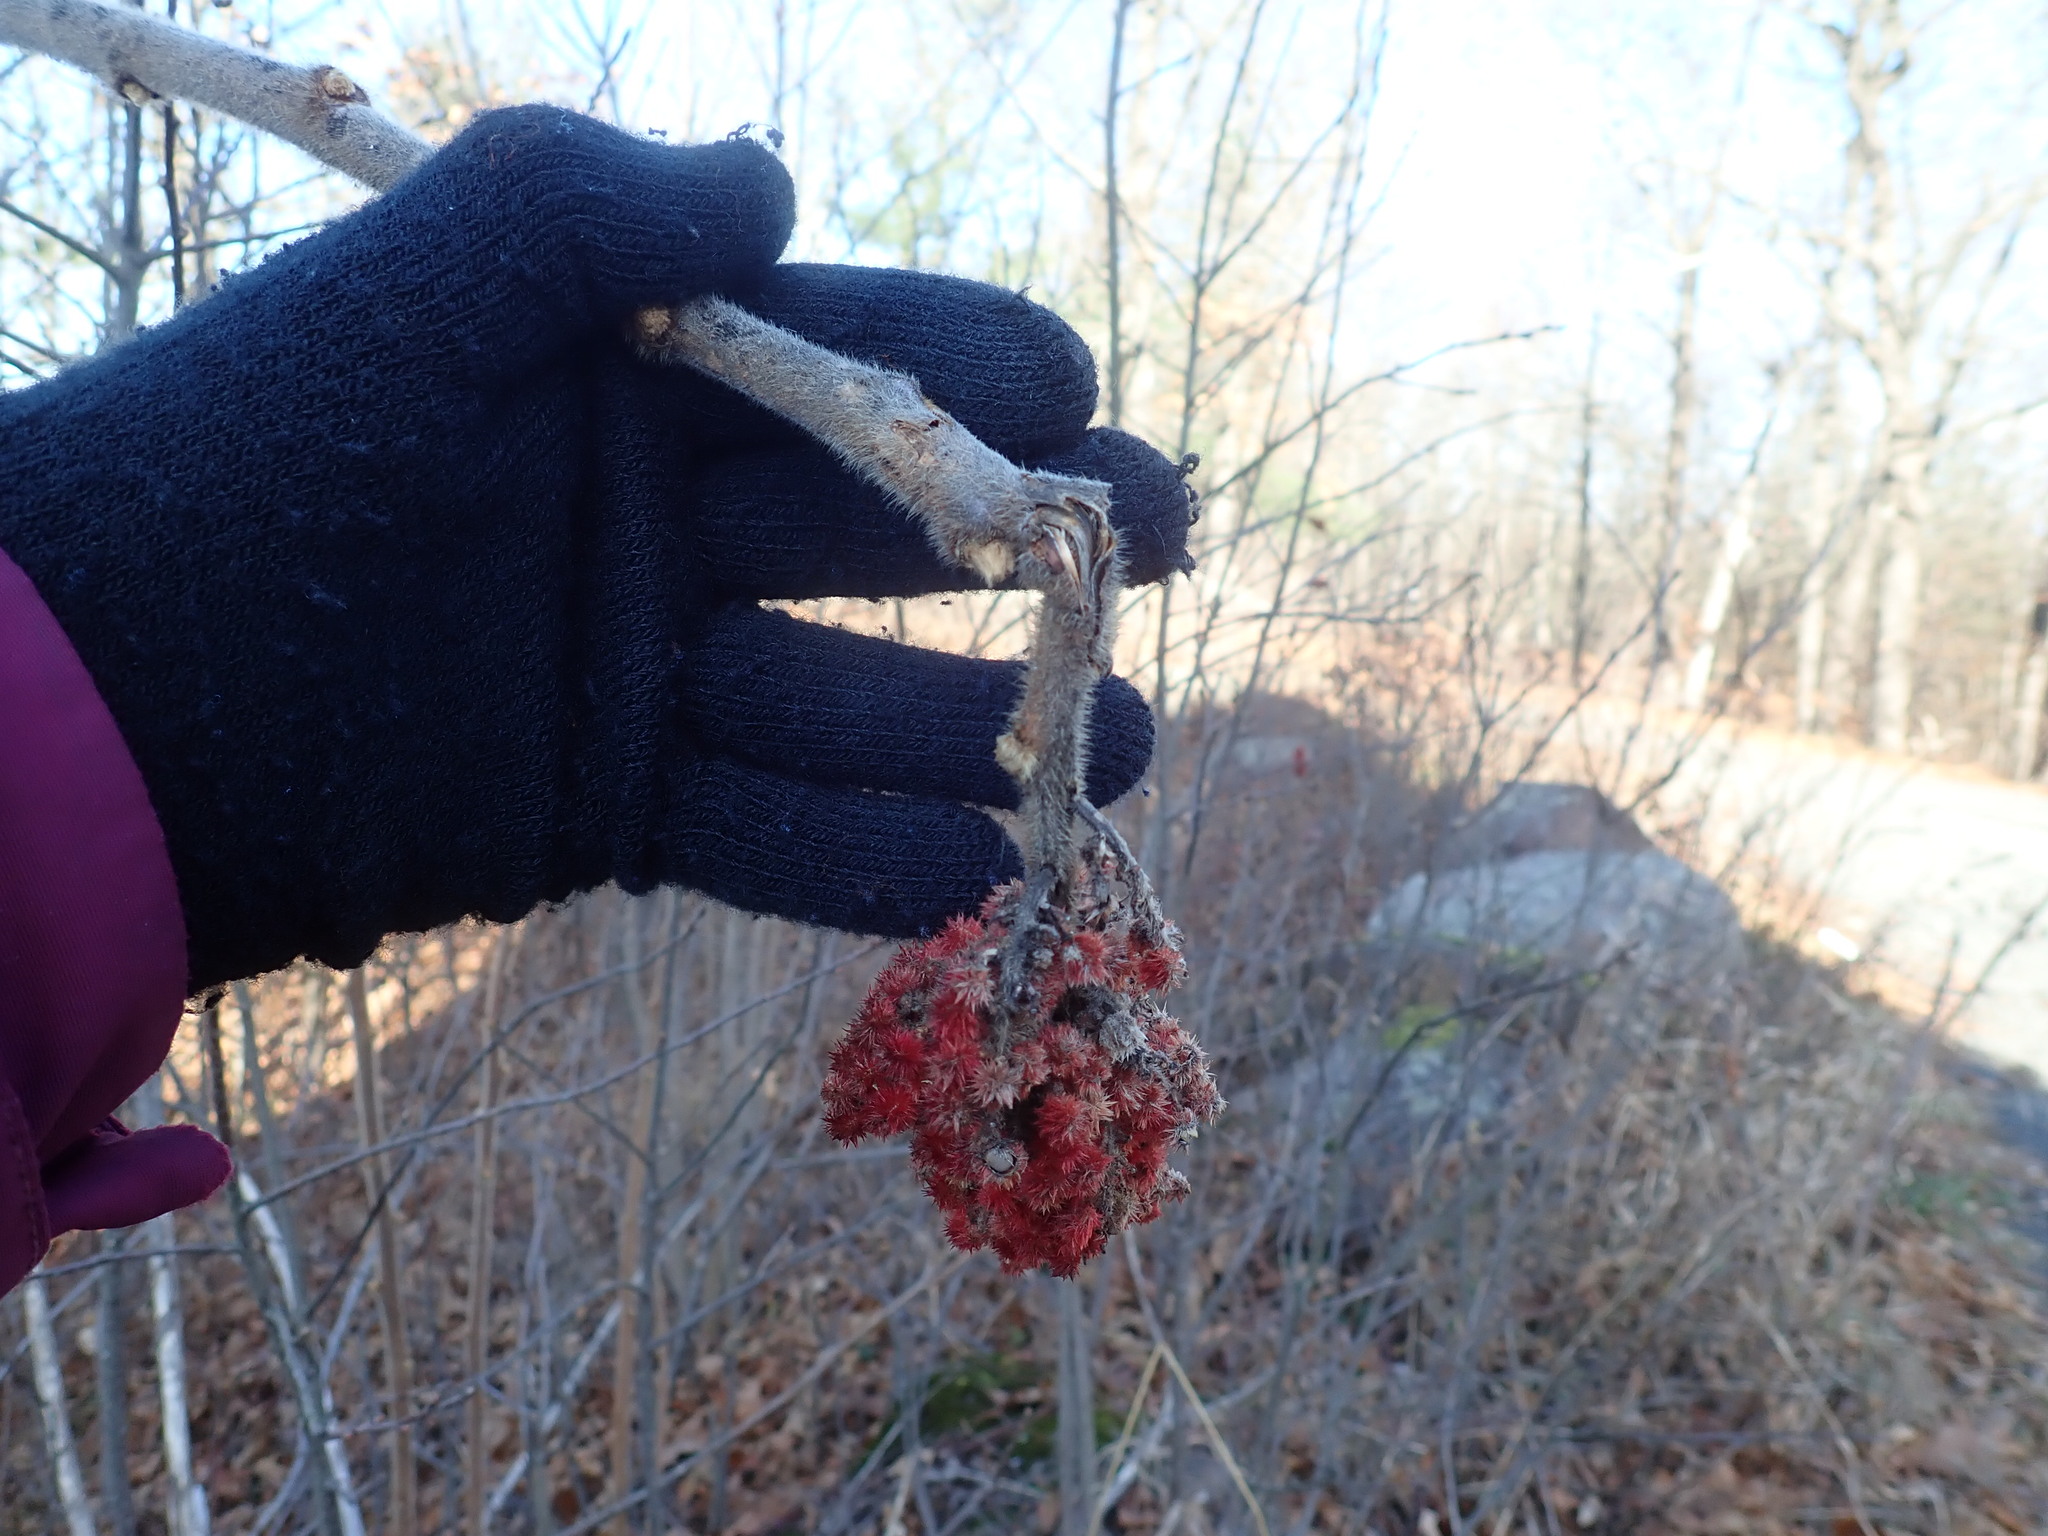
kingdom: Plantae
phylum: Tracheophyta
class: Magnoliopsida
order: Sapindales
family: Anacardiaceae
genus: Rhus
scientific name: Rhus typhina
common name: Staghorn sumac
